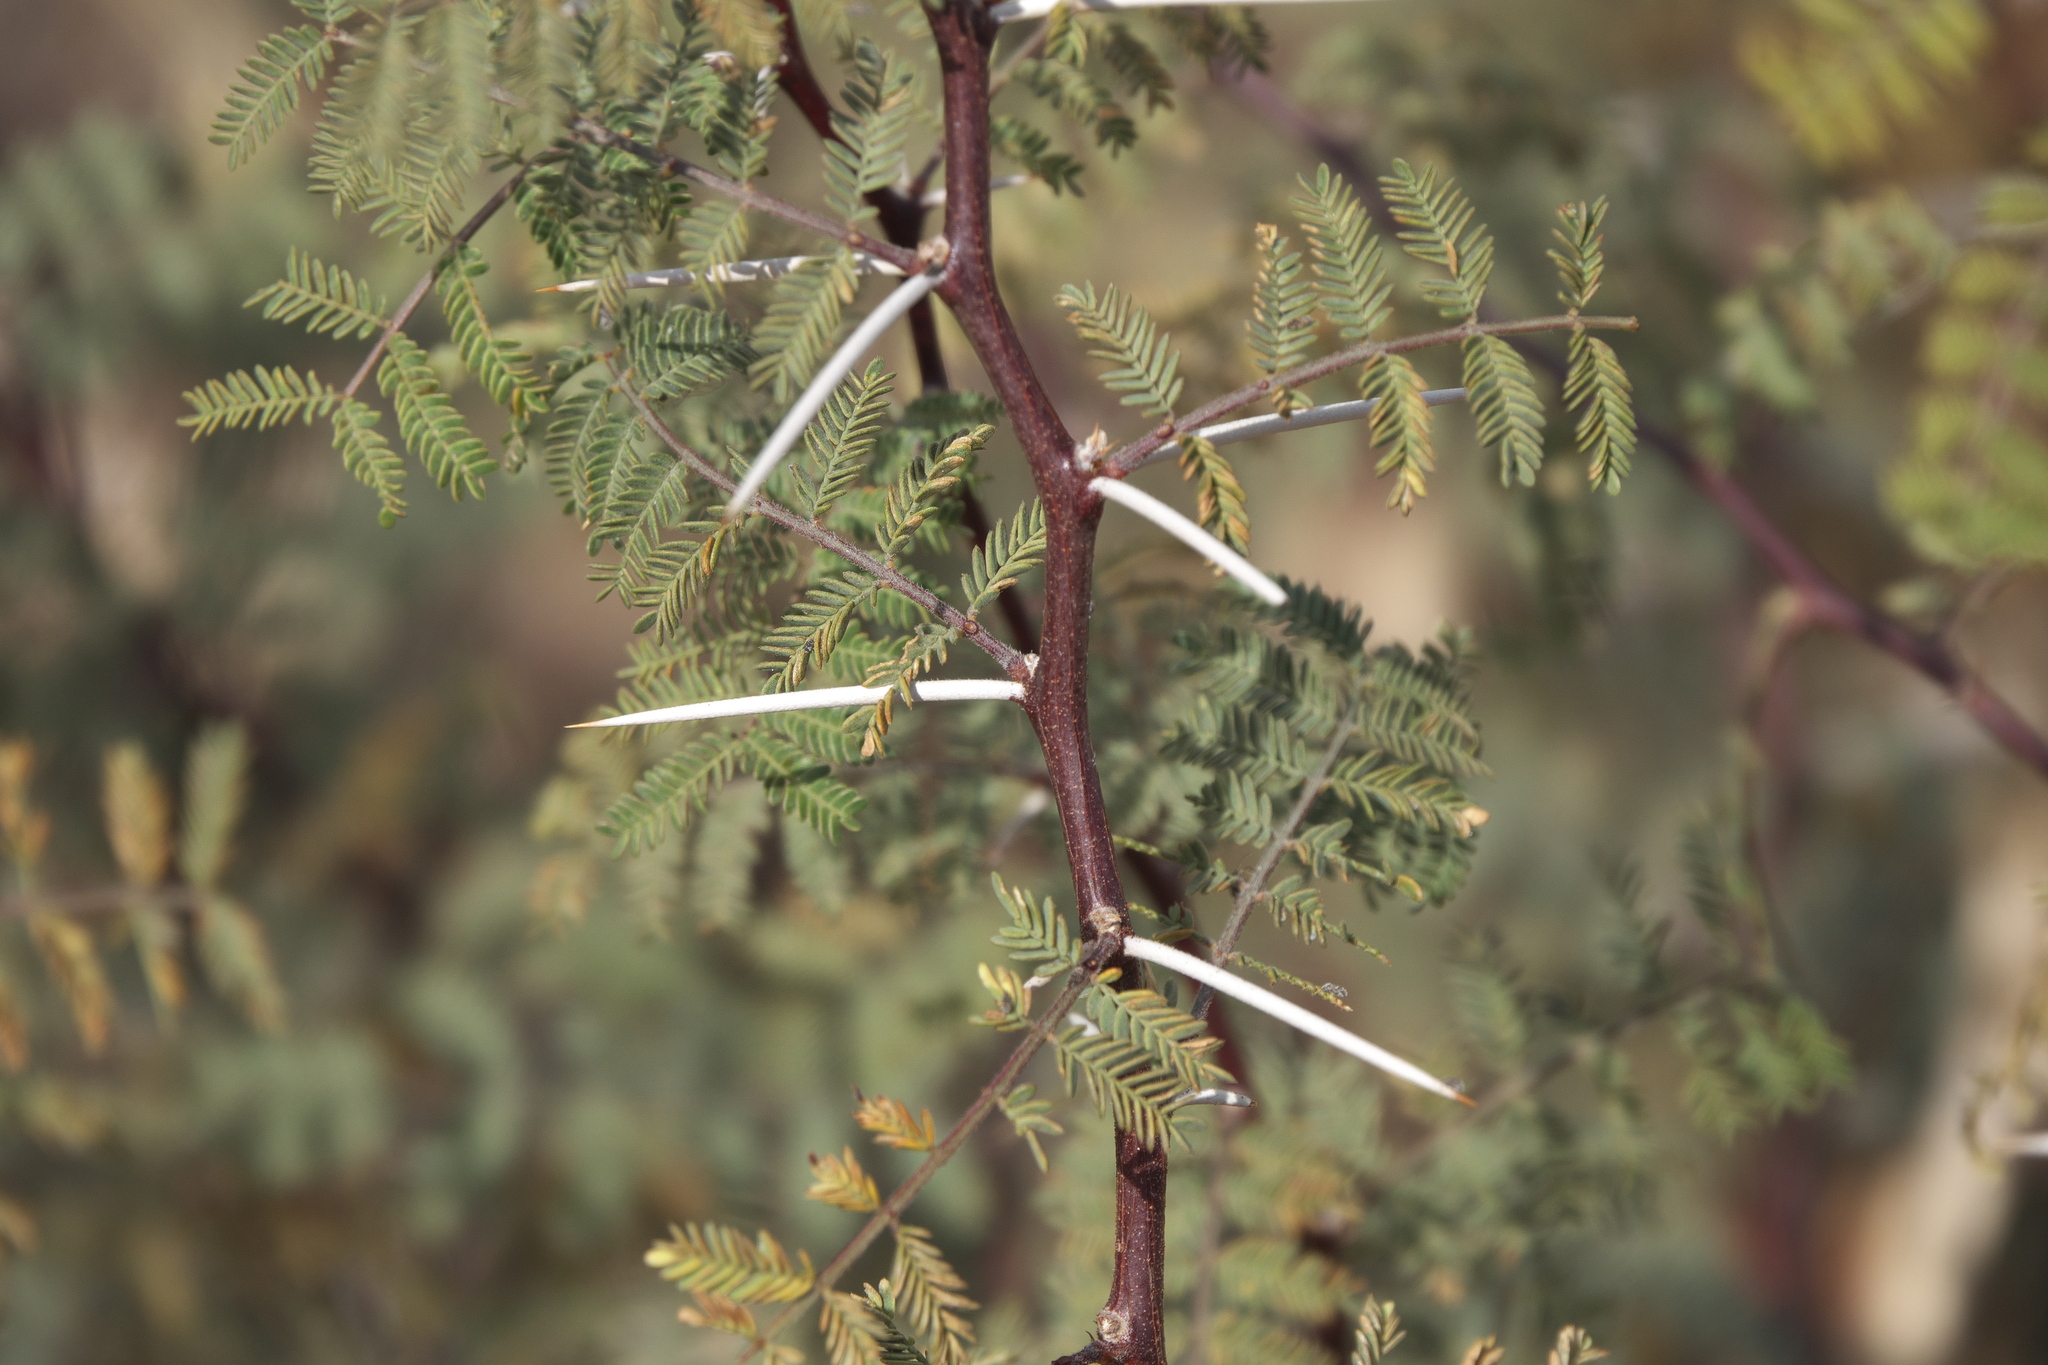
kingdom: Plantae
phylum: Tracheophyta
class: Magnoliopsida
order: Fabales
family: Fabaceae
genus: Vachellia
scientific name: Vachellia constricta
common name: Mescat acacia
